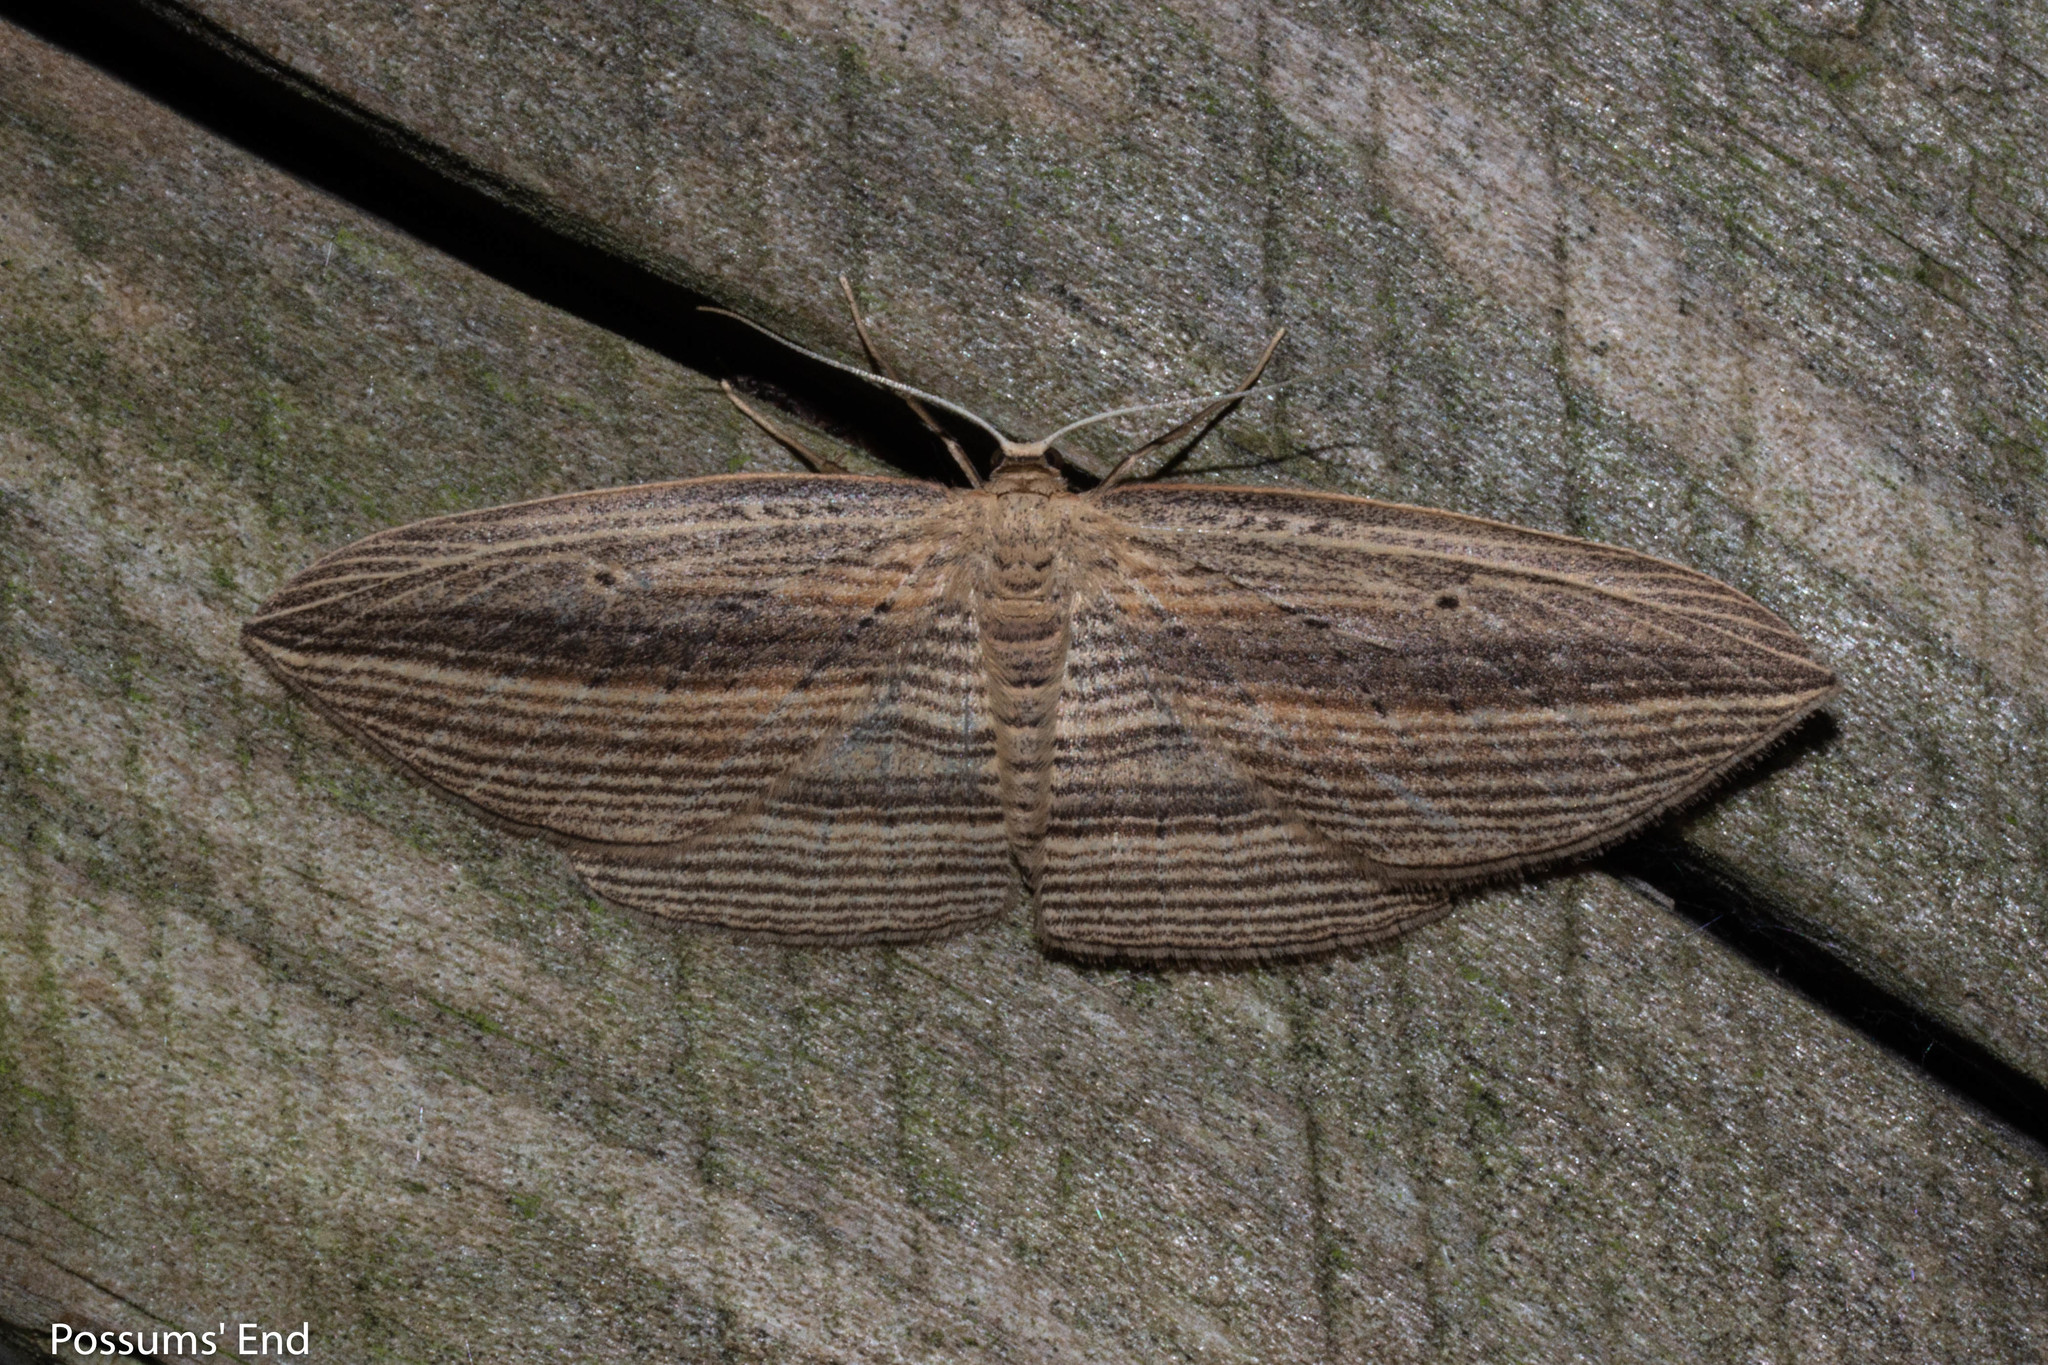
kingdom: Animalia
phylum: Arthropoda
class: Insecta
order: Lepidoptera
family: Geometridae
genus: Epiphryne
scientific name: Epiphryne verriculata
